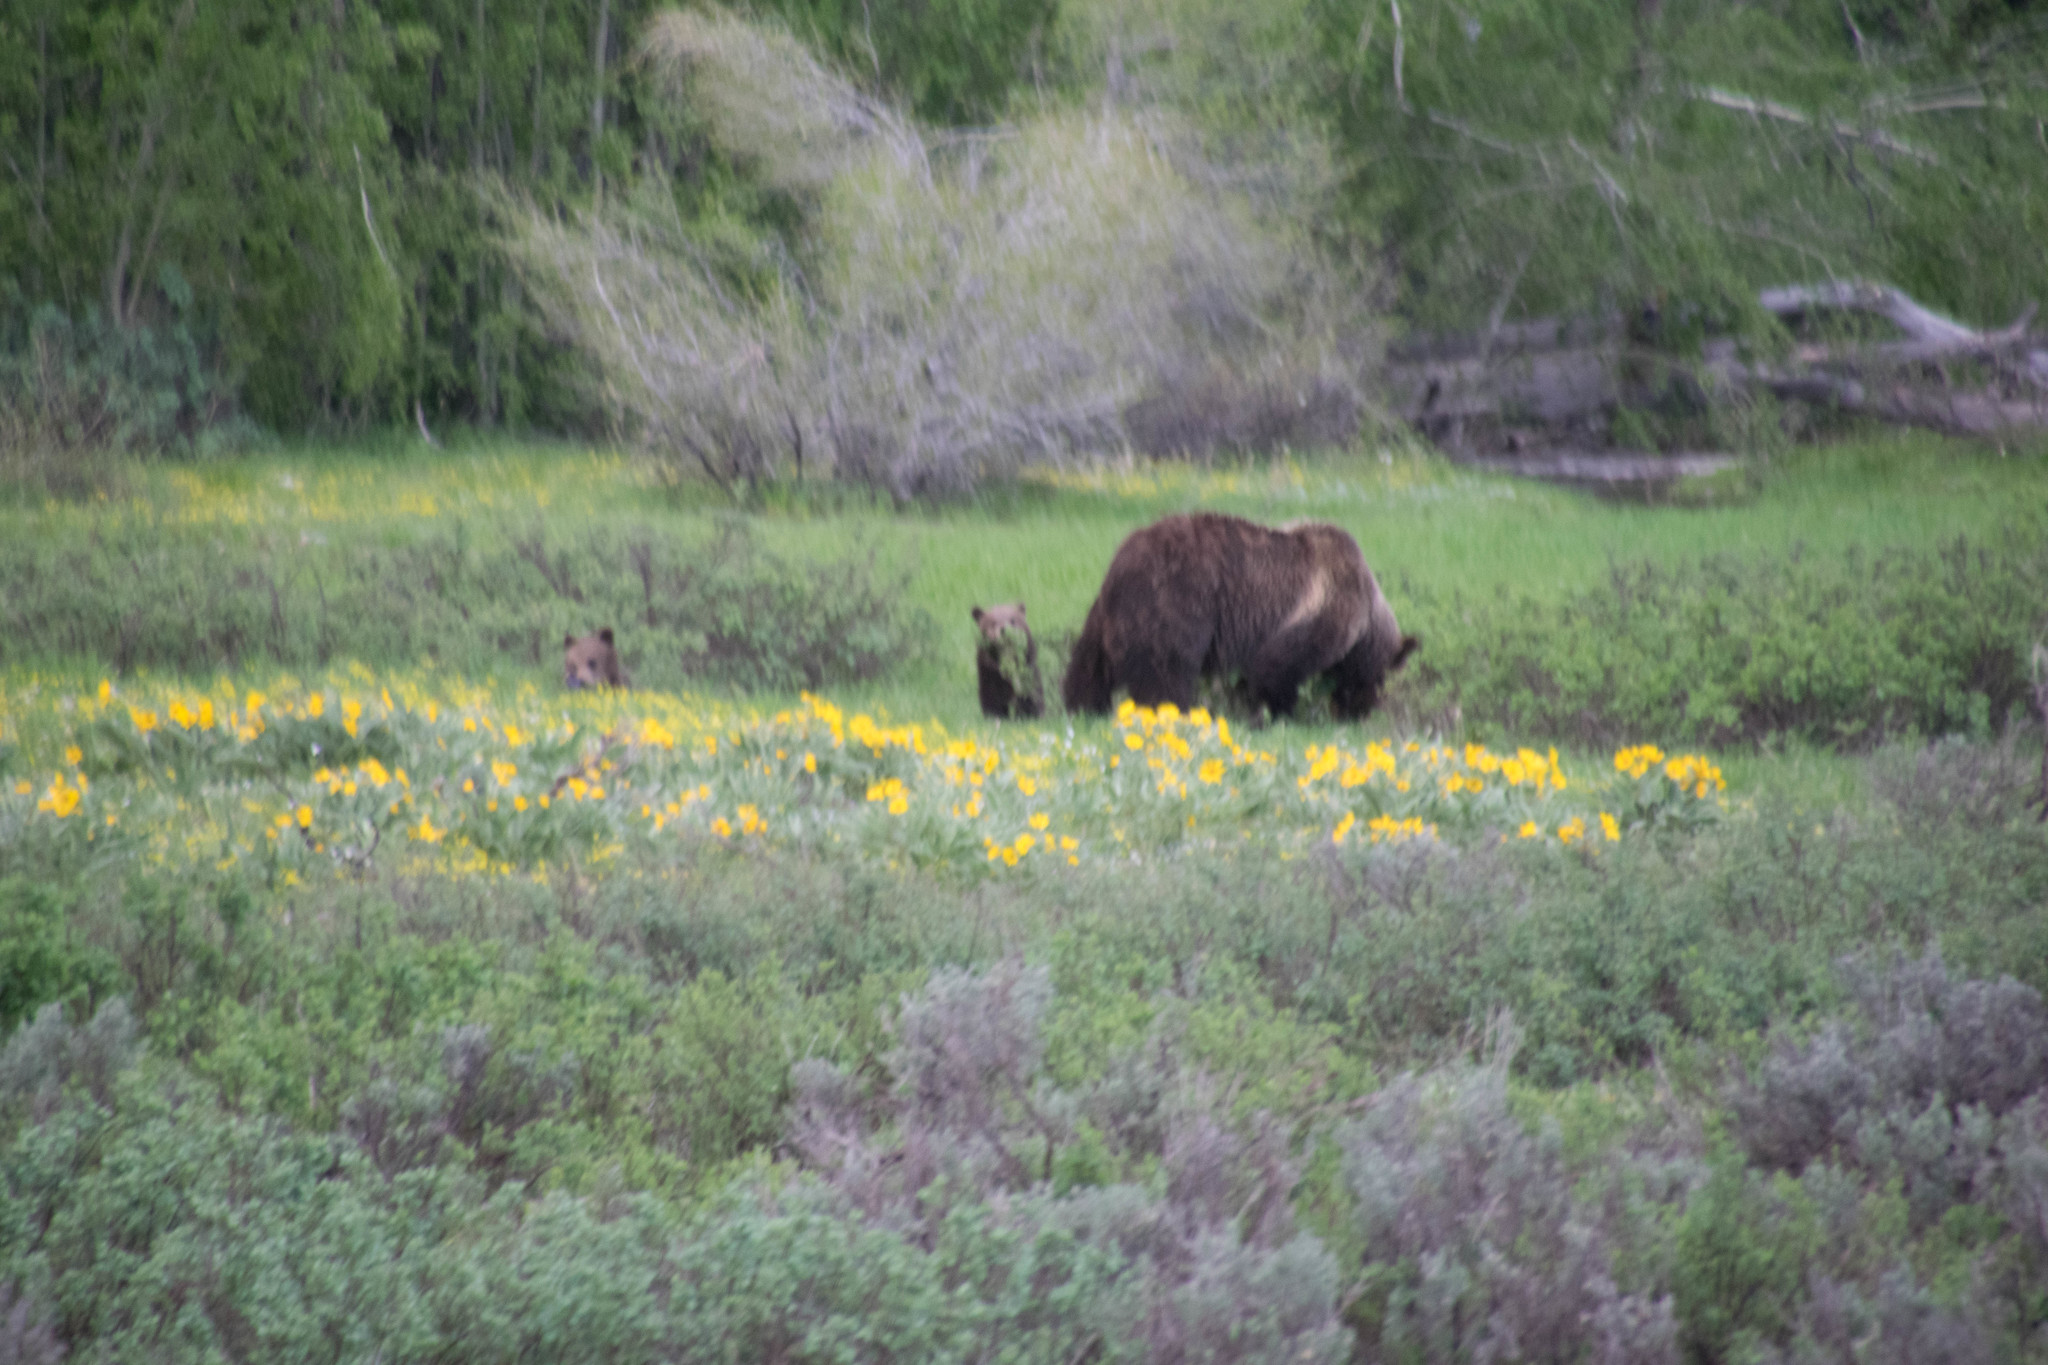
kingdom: Animalia
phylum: Chordata
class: Mammalia
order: Carnivora
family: Ursidae
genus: Ursus
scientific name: Ursus arctos
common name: Brown bear
